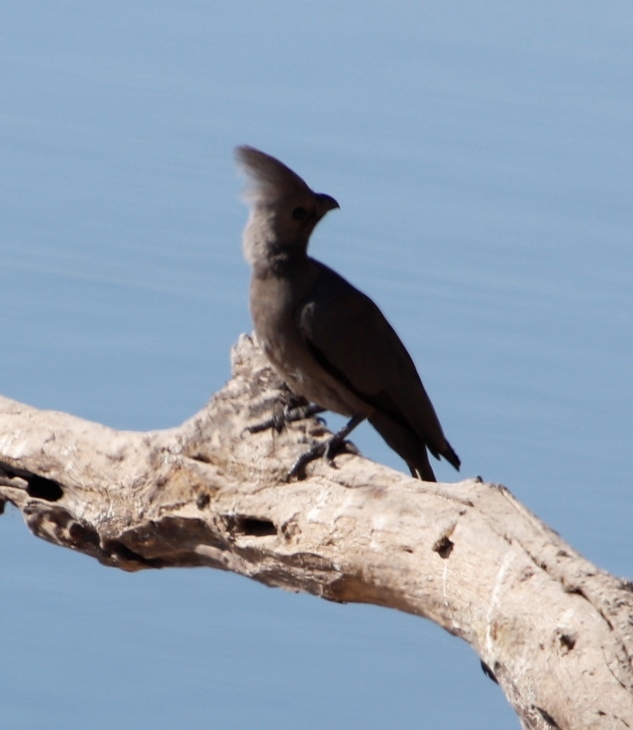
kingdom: Animalia
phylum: Chordata
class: Aves
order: Musophagiformes
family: Musophagidae
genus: Corythaixoides
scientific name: Corythaixoides concolor
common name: Grey go-away-bird
